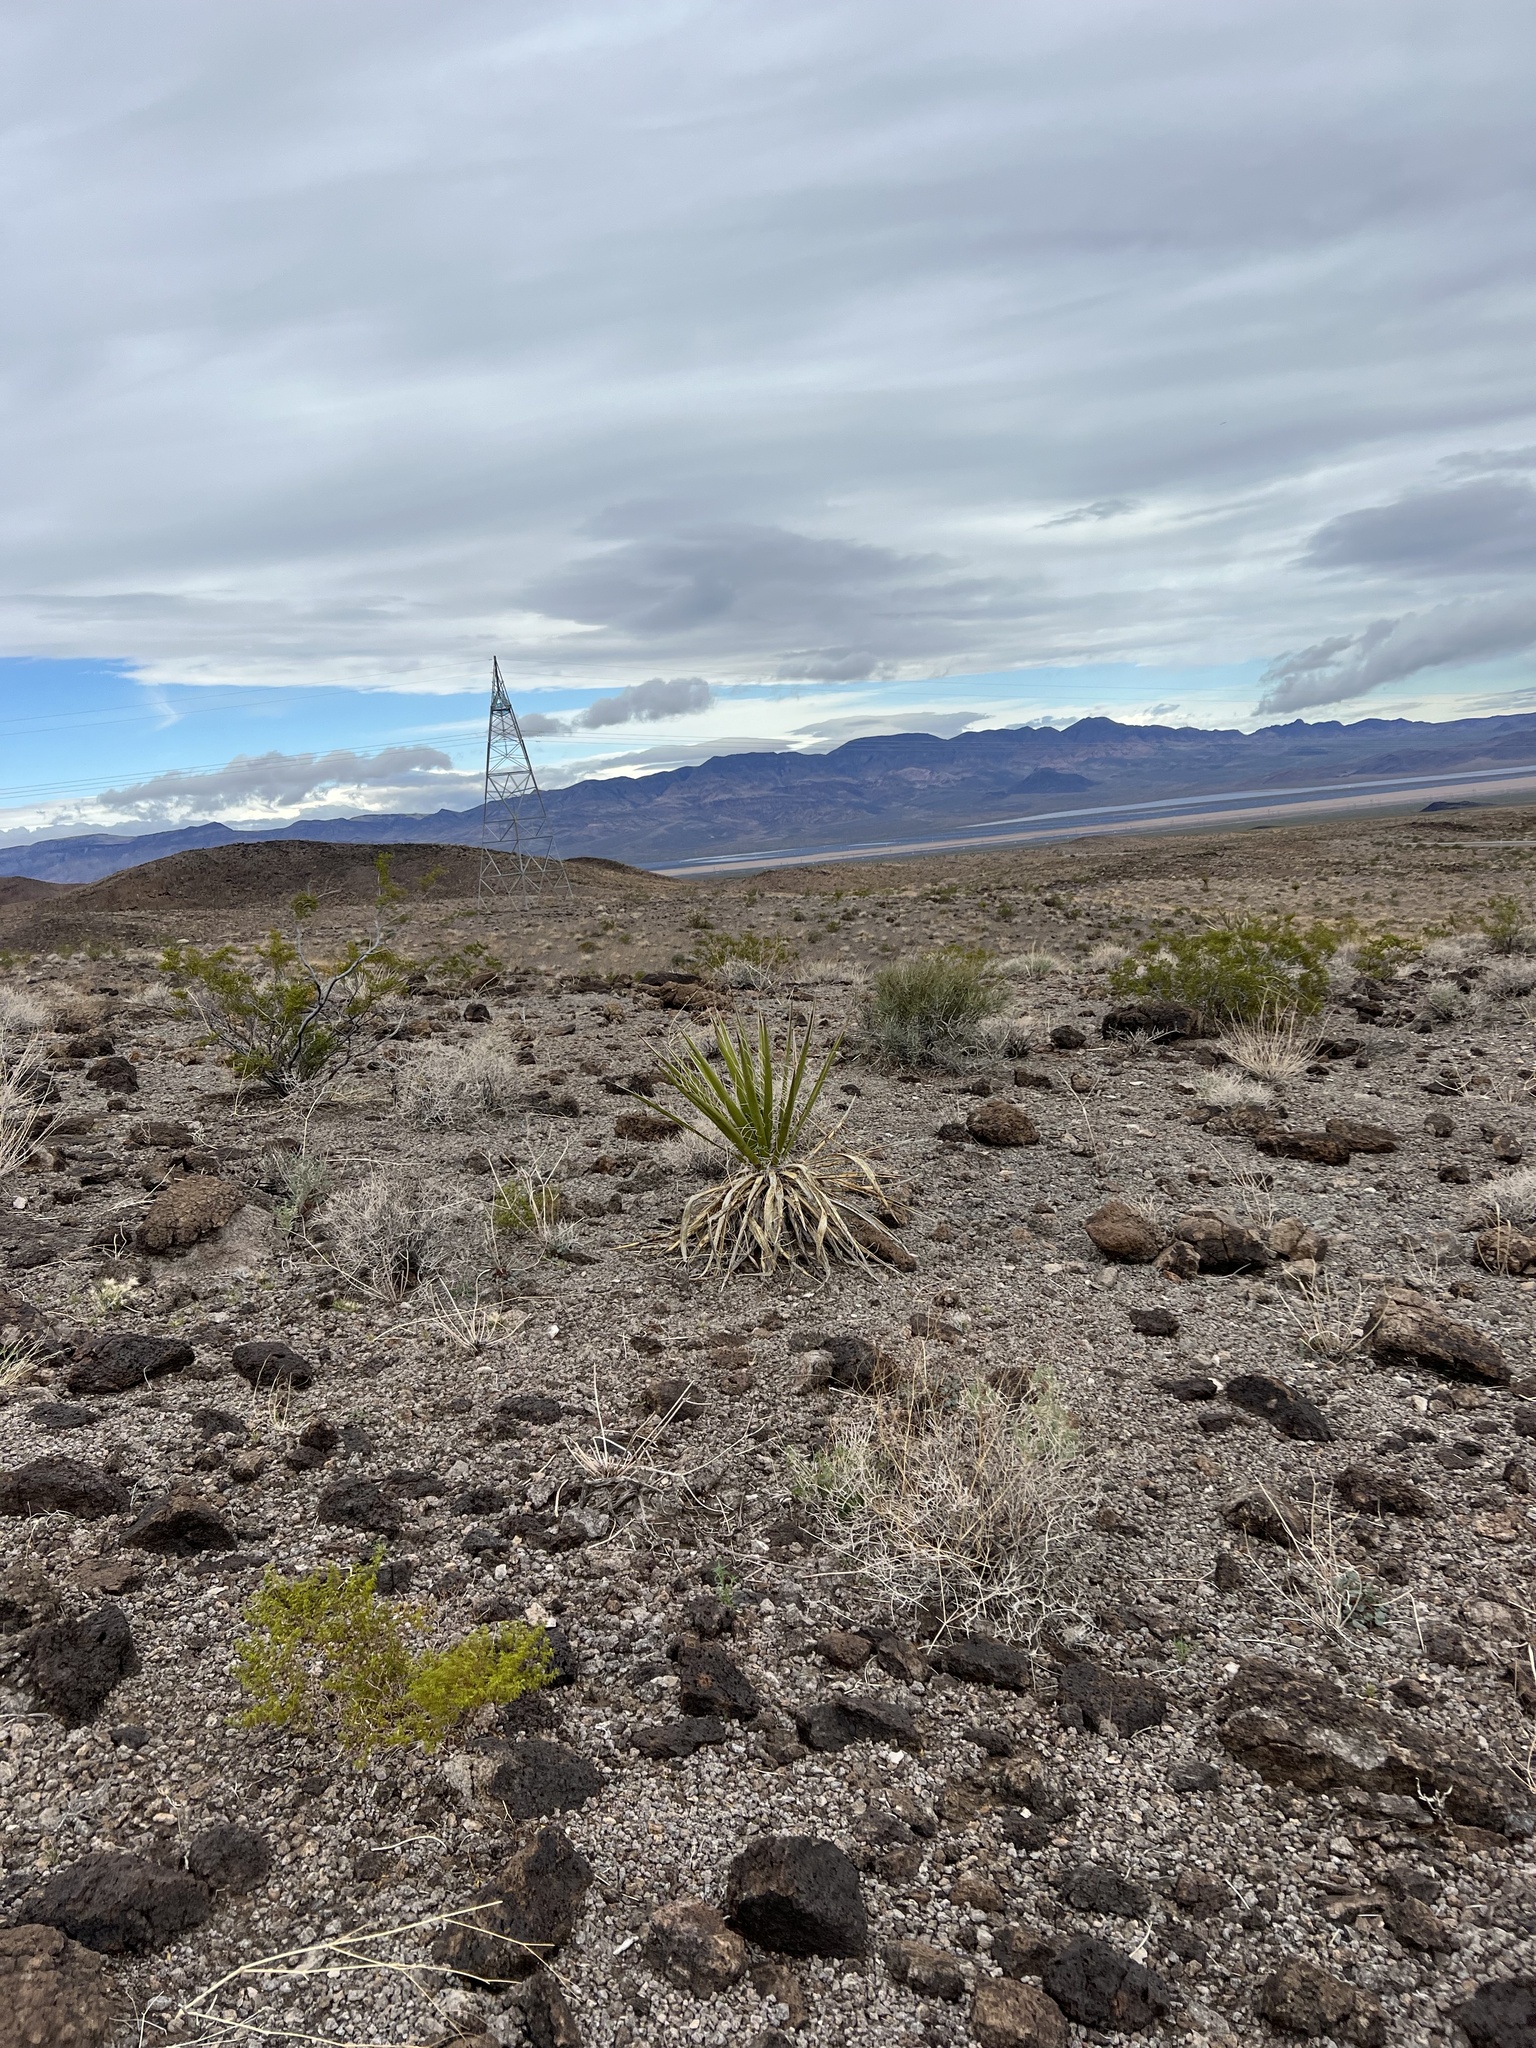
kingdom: Plantae
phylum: Tracheophyta
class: Magnoliopsida
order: Zygophyllales
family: Zygophyllaceae
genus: Larrea
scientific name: Larrea tridentata
